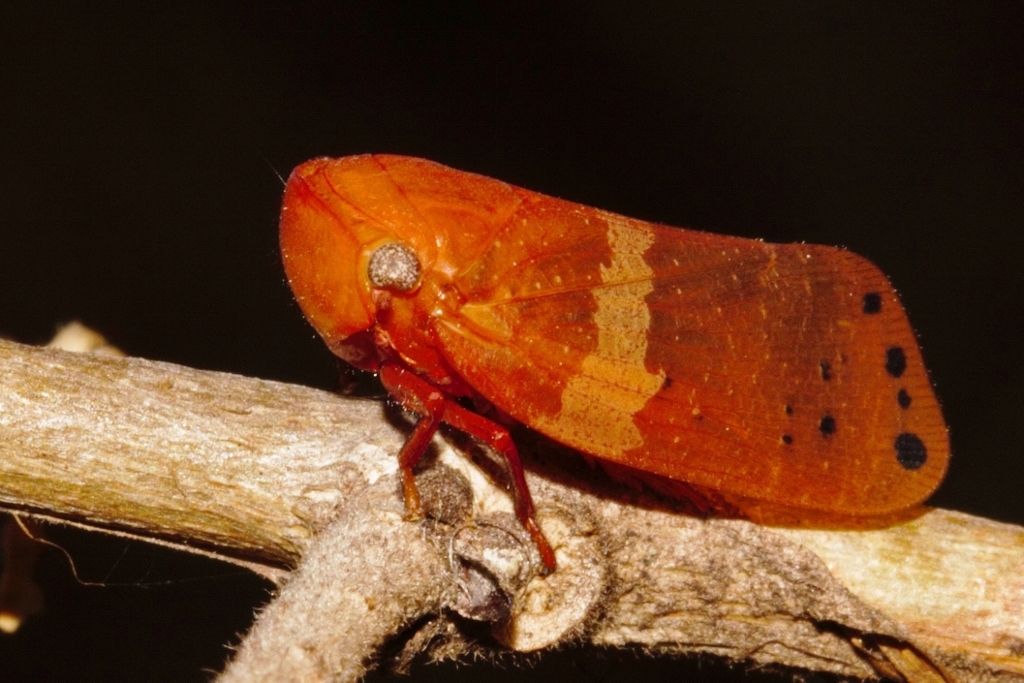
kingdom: Animalia
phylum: Arthropoda
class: Insecta
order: Hemiptera
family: Eurybrachidae
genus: Mesonitys
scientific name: Mesonitys fulleborni
